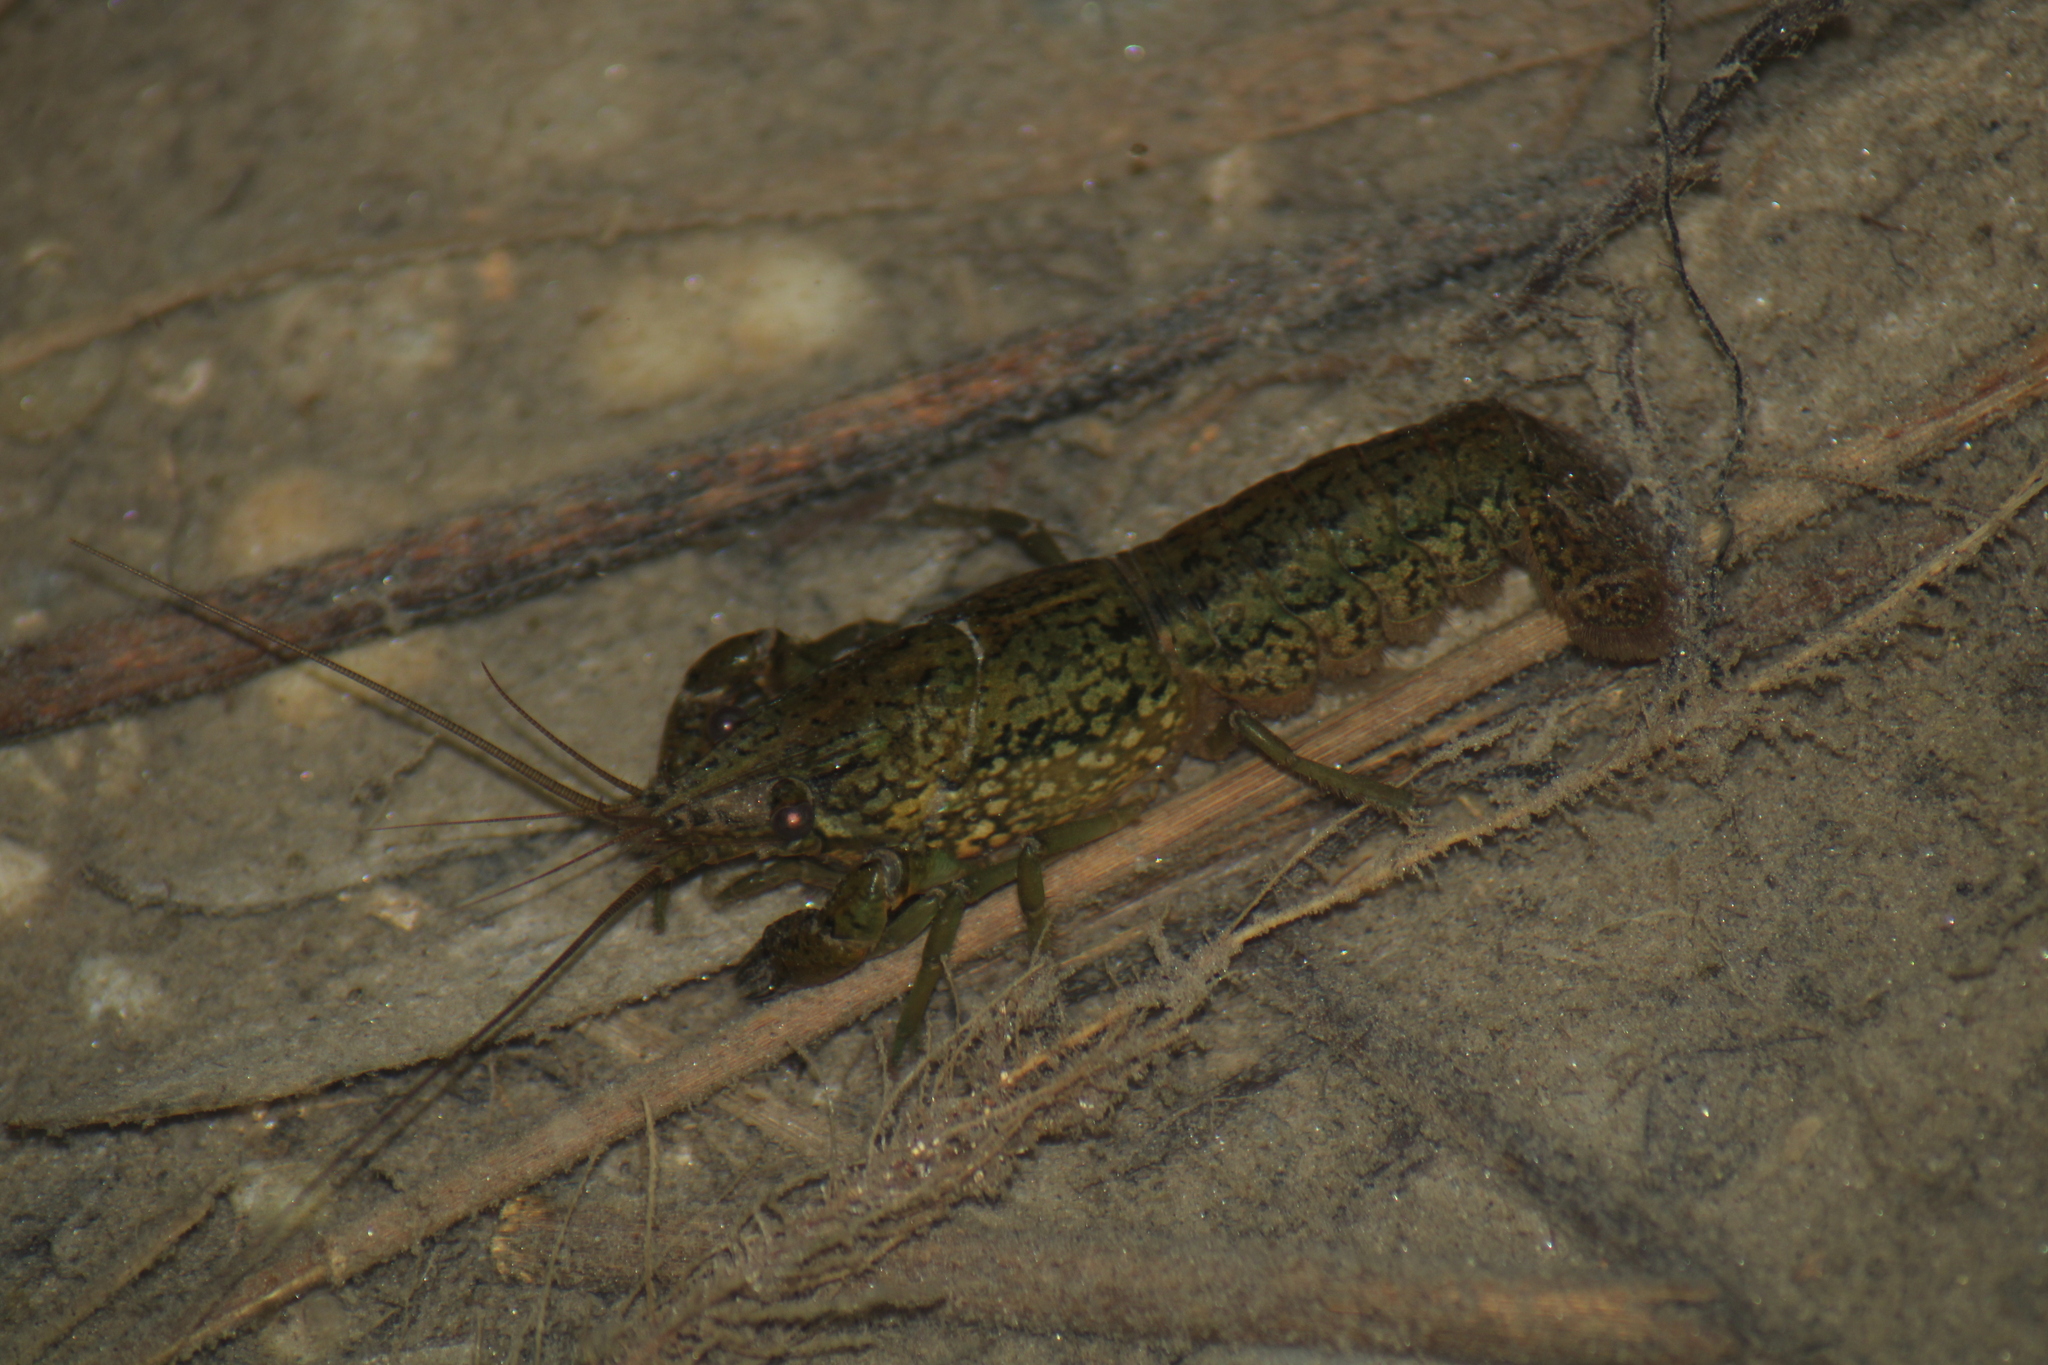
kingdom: Animalia
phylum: Arthropoda
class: Malacostraca
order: Decapoda
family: Cambaridae
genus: Procambarus
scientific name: Procambarus virginalis
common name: Marbled crayfish
